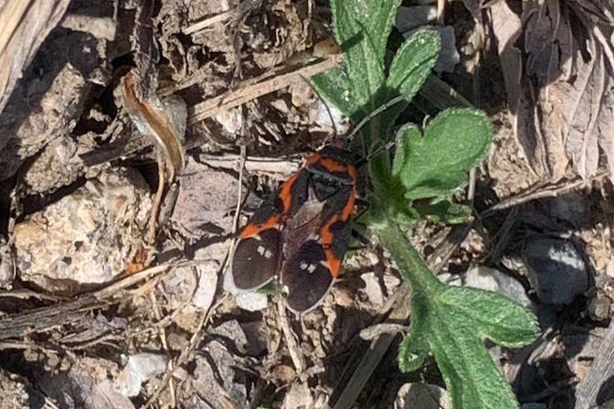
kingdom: Animalia
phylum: Arthropoda
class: Insecta
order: Hemiptera
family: Lygaeidae
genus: Lygaeus
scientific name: Lygaeus kalmii
